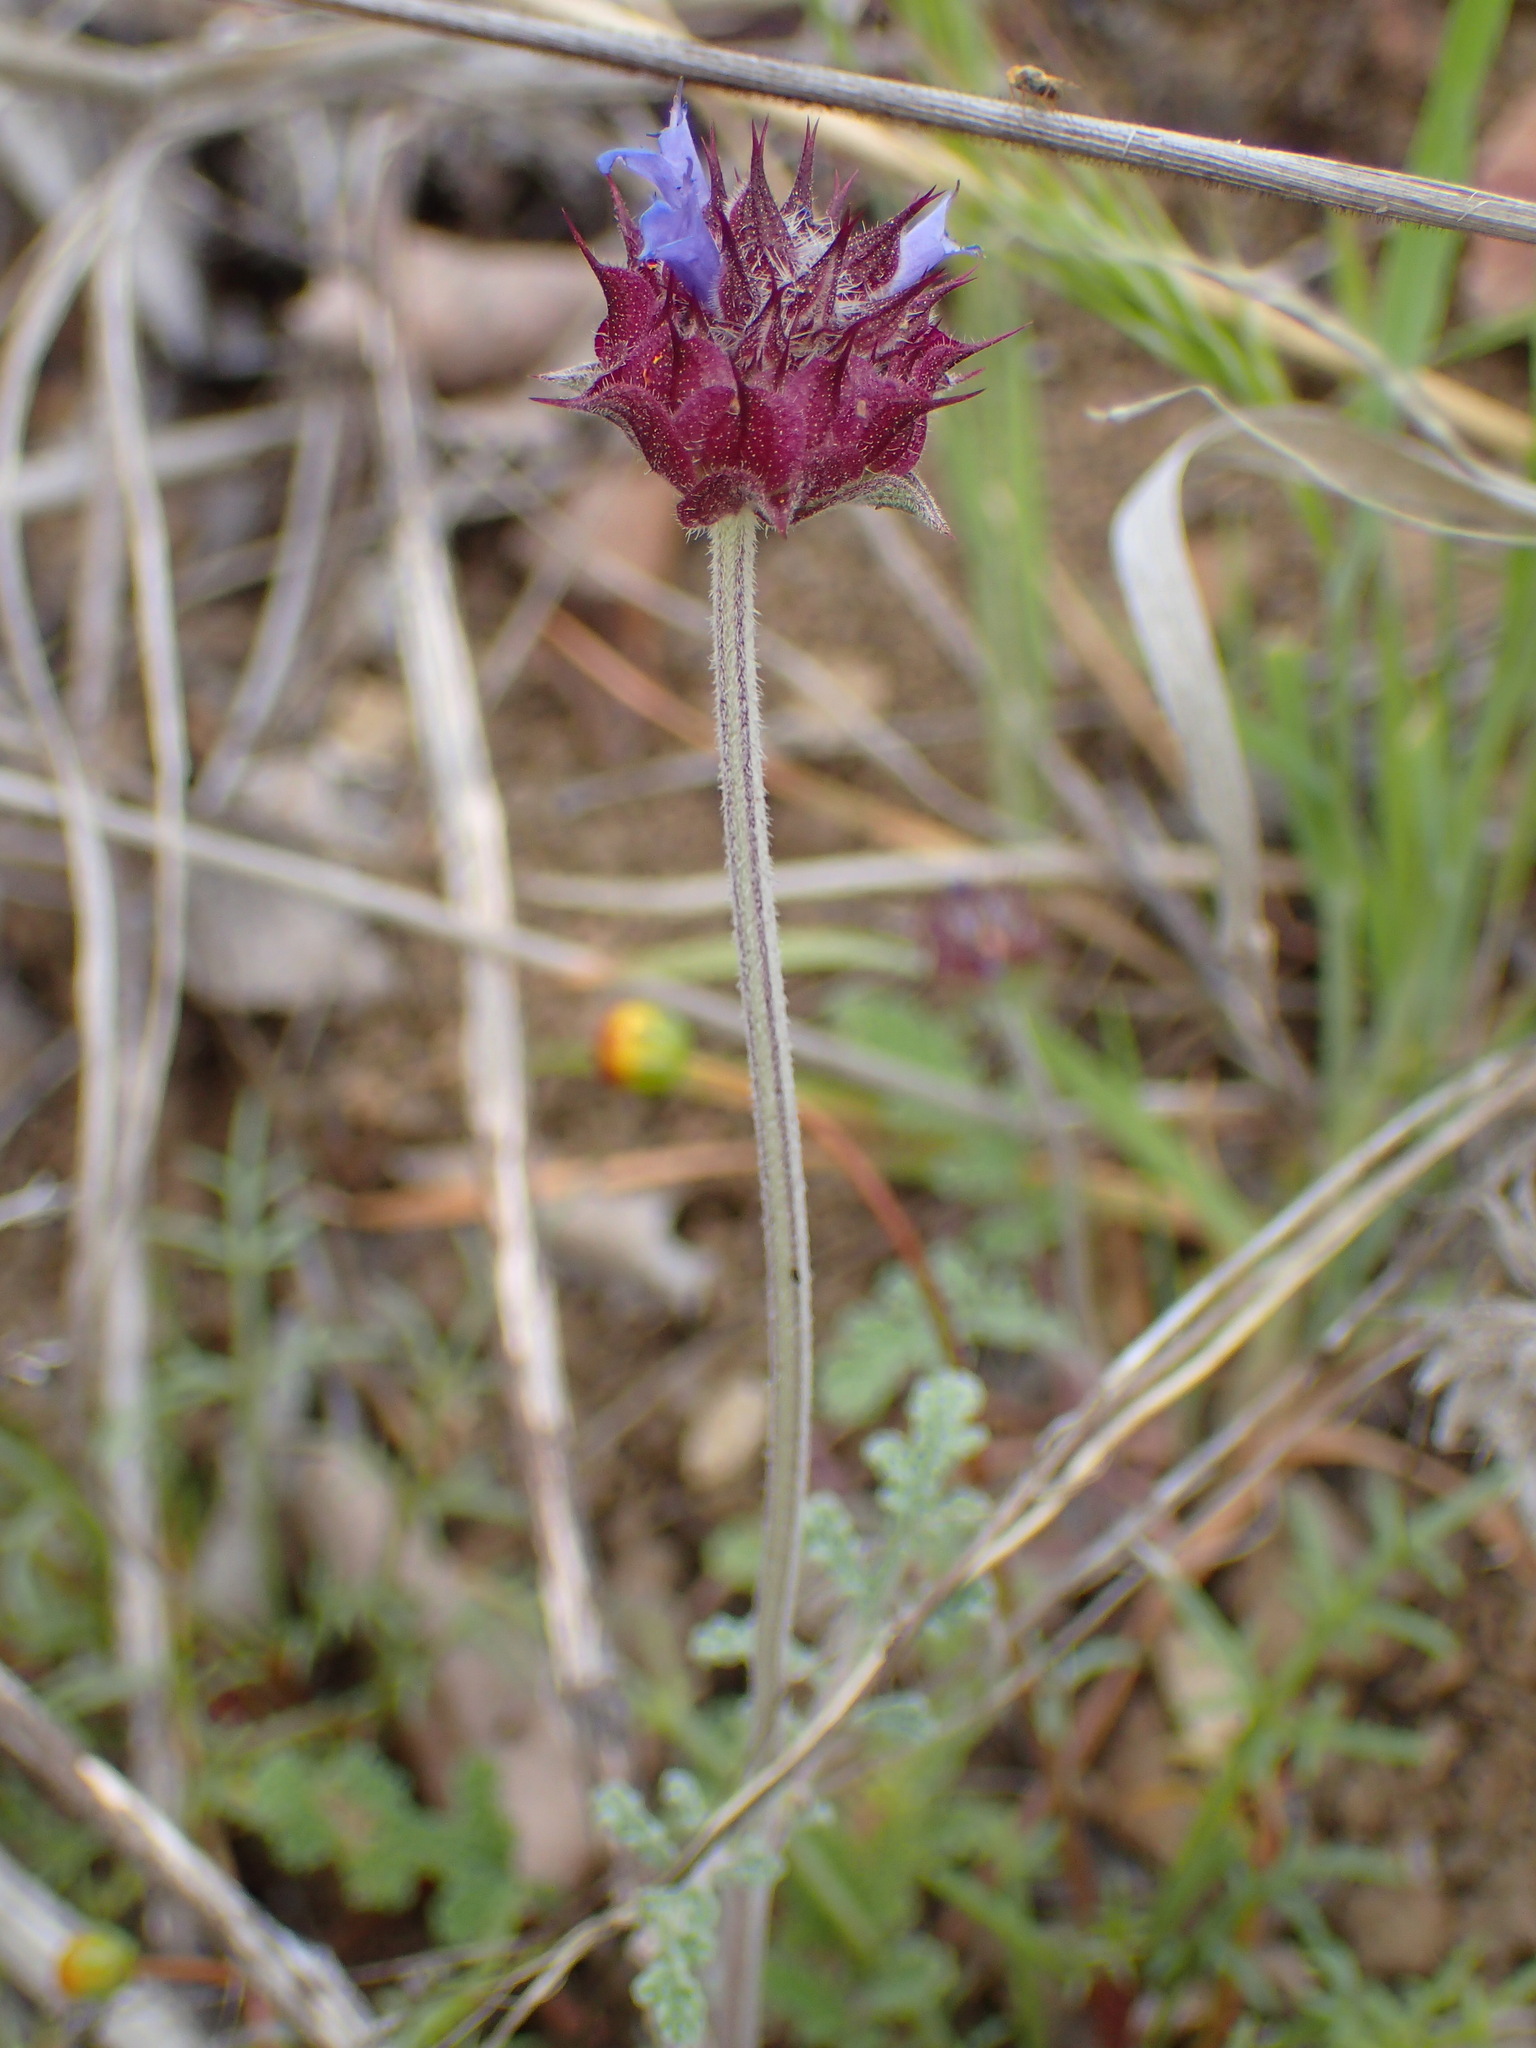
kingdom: Plantae
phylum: Tracheophyta
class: Magnoliopsida
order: Lamiales
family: Lamiaceae
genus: Salvia
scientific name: Salvia columbariae
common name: Chia
